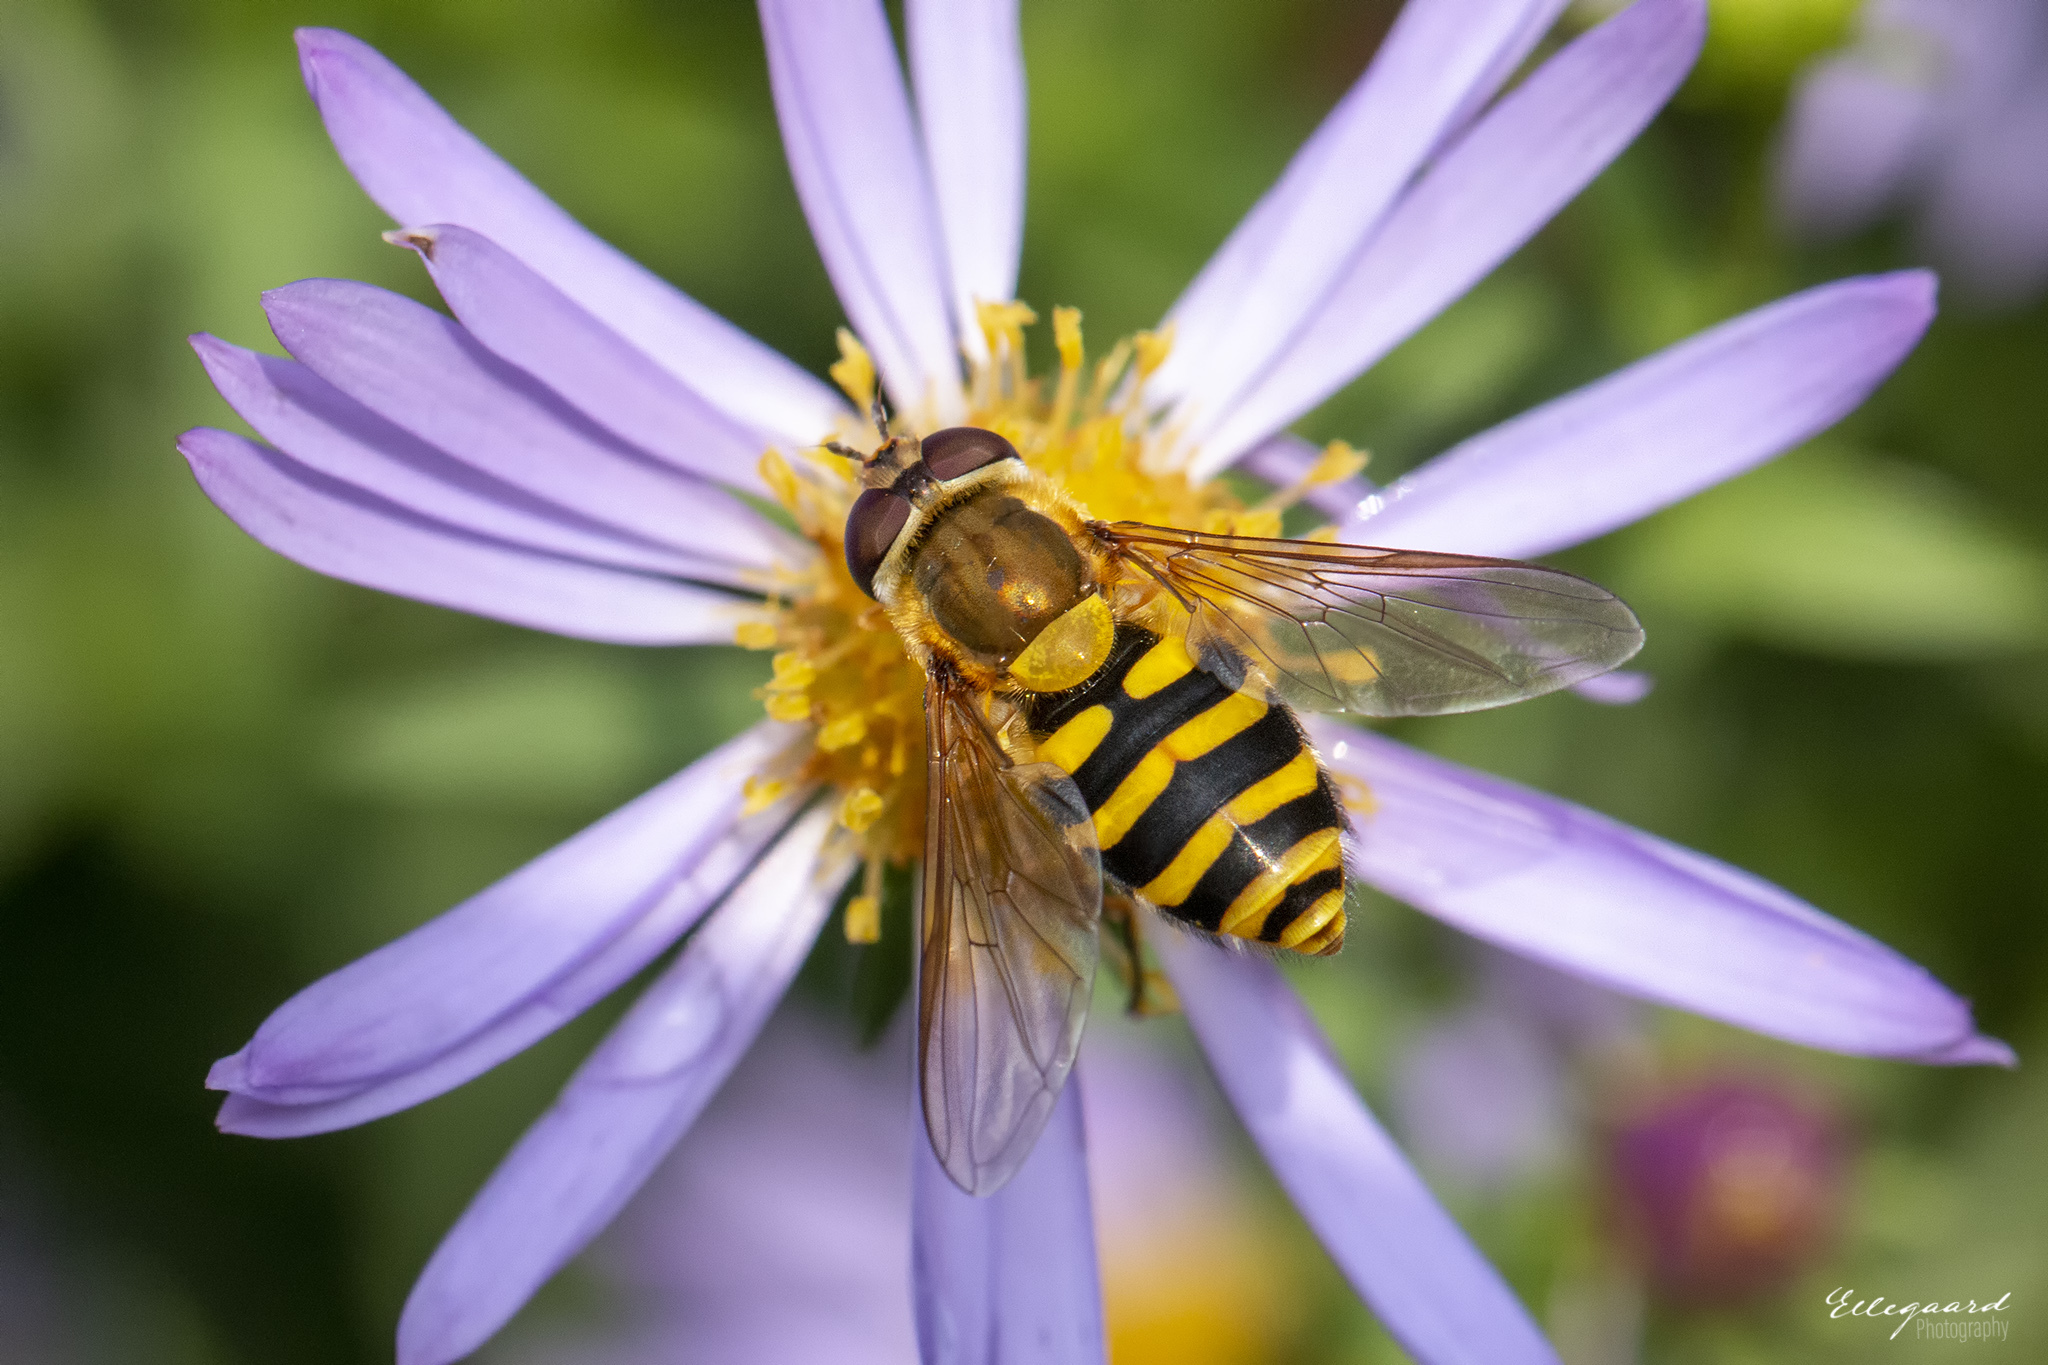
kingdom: Animalia
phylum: Arthropoda
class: Insecta
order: Diptera
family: Syrphidae
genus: Syrphus
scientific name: Syrphus
